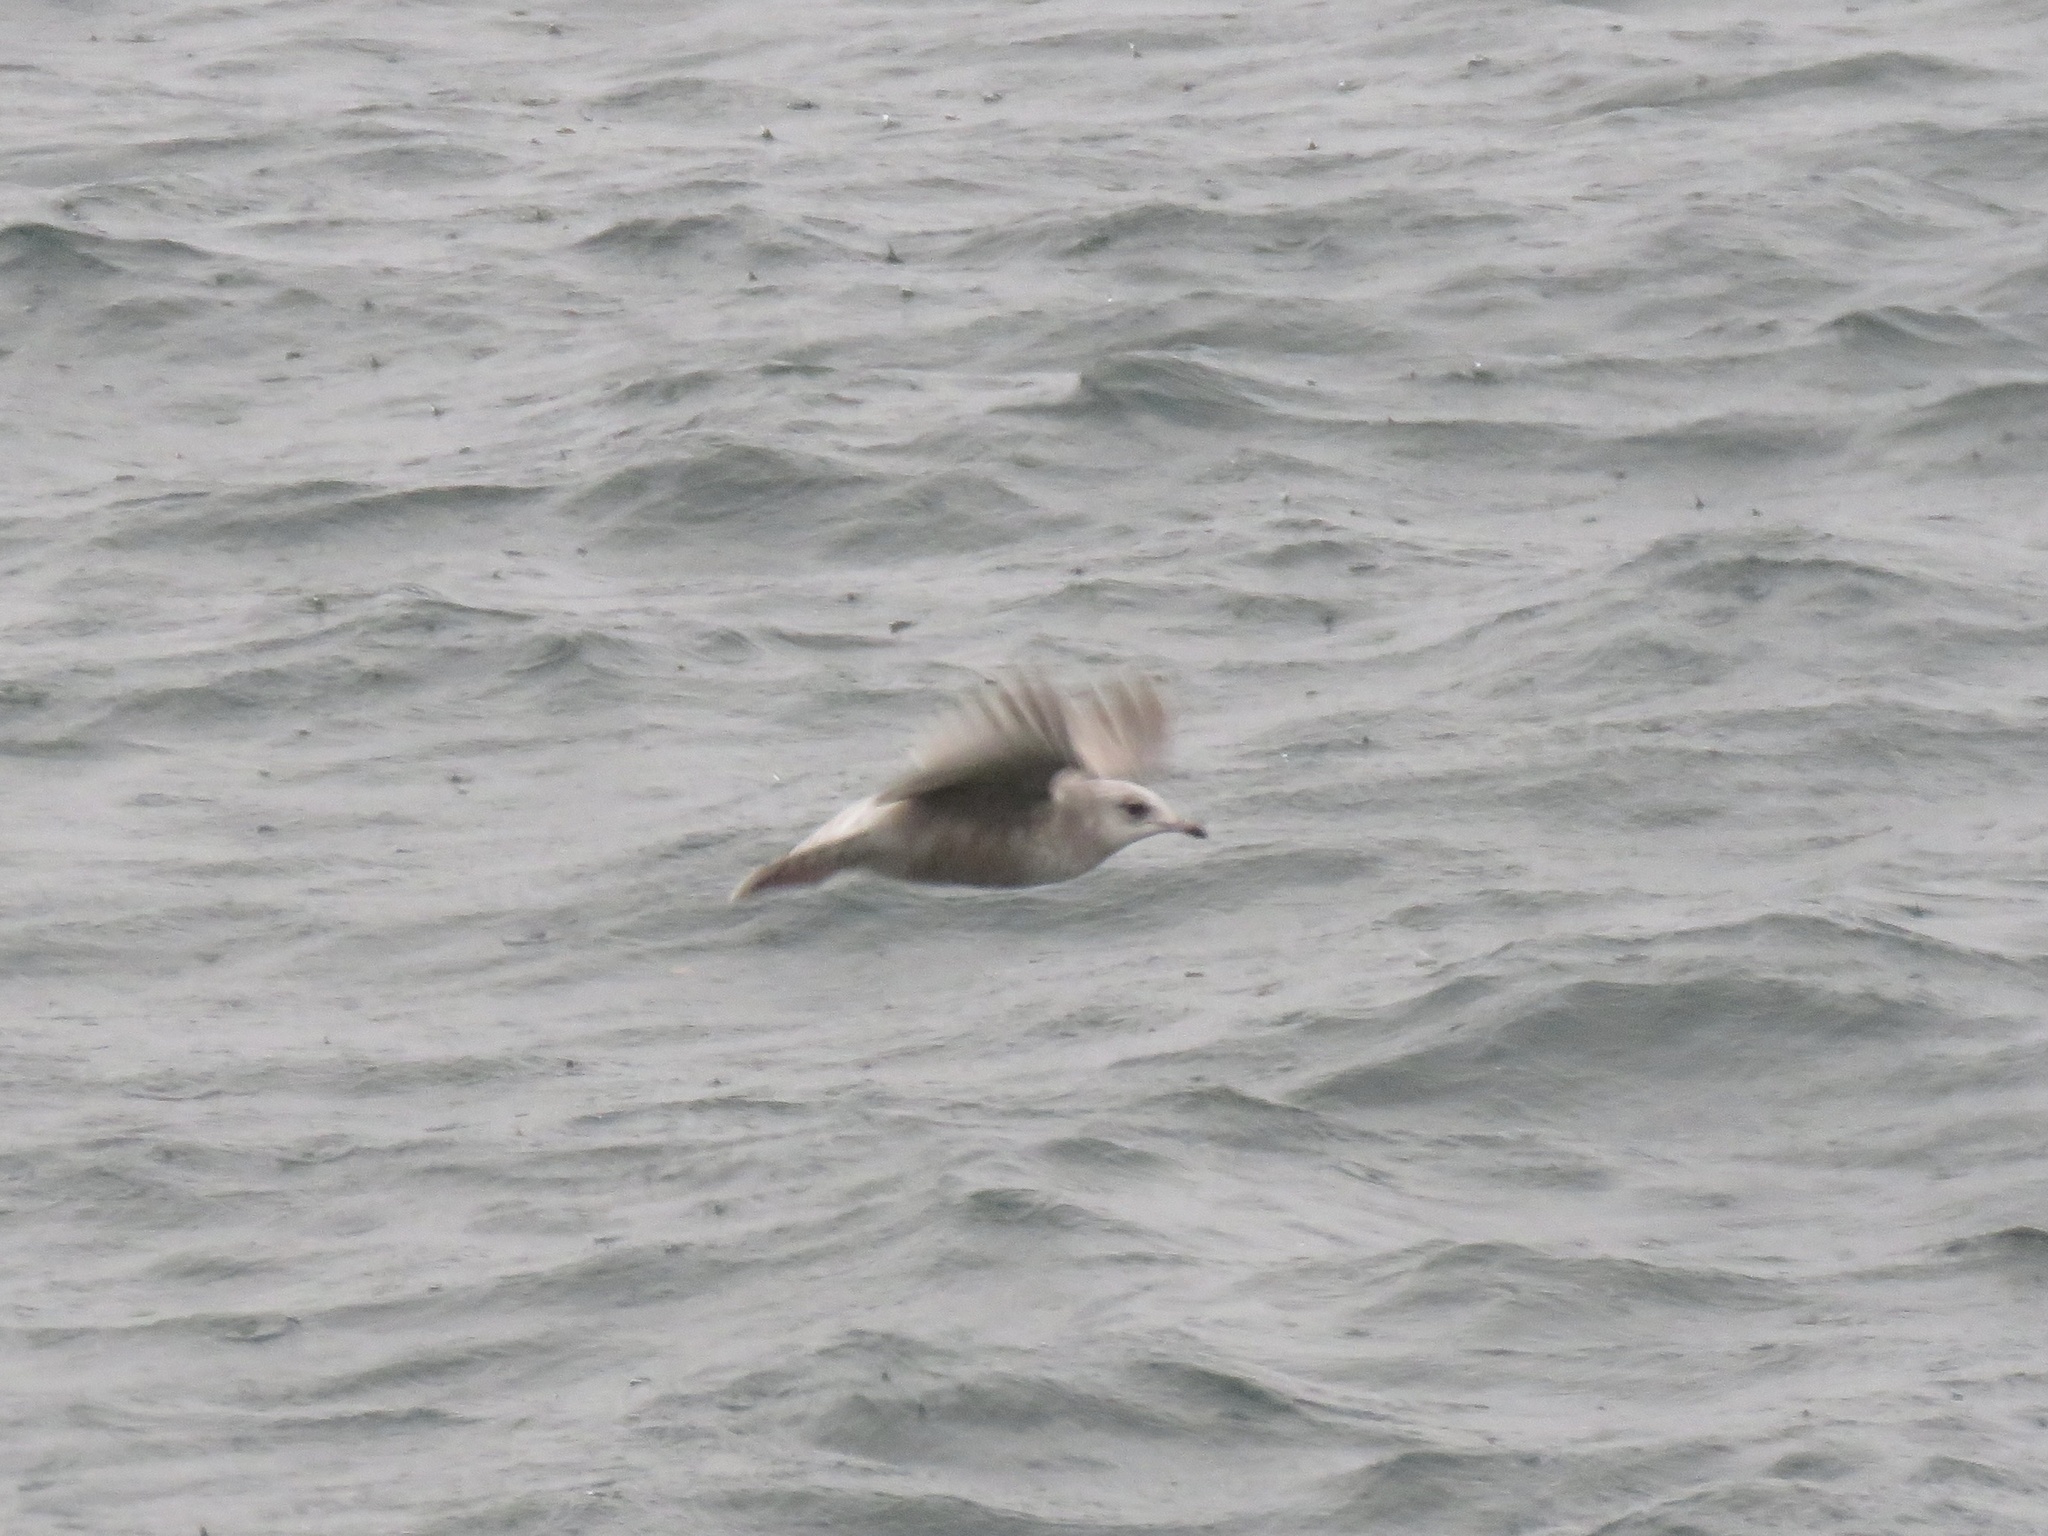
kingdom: Animalia
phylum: Chordata
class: Aves
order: Charadriiformes
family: Laridae
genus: Larus
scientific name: Larus brachyrhynchus
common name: Short-billed gull
